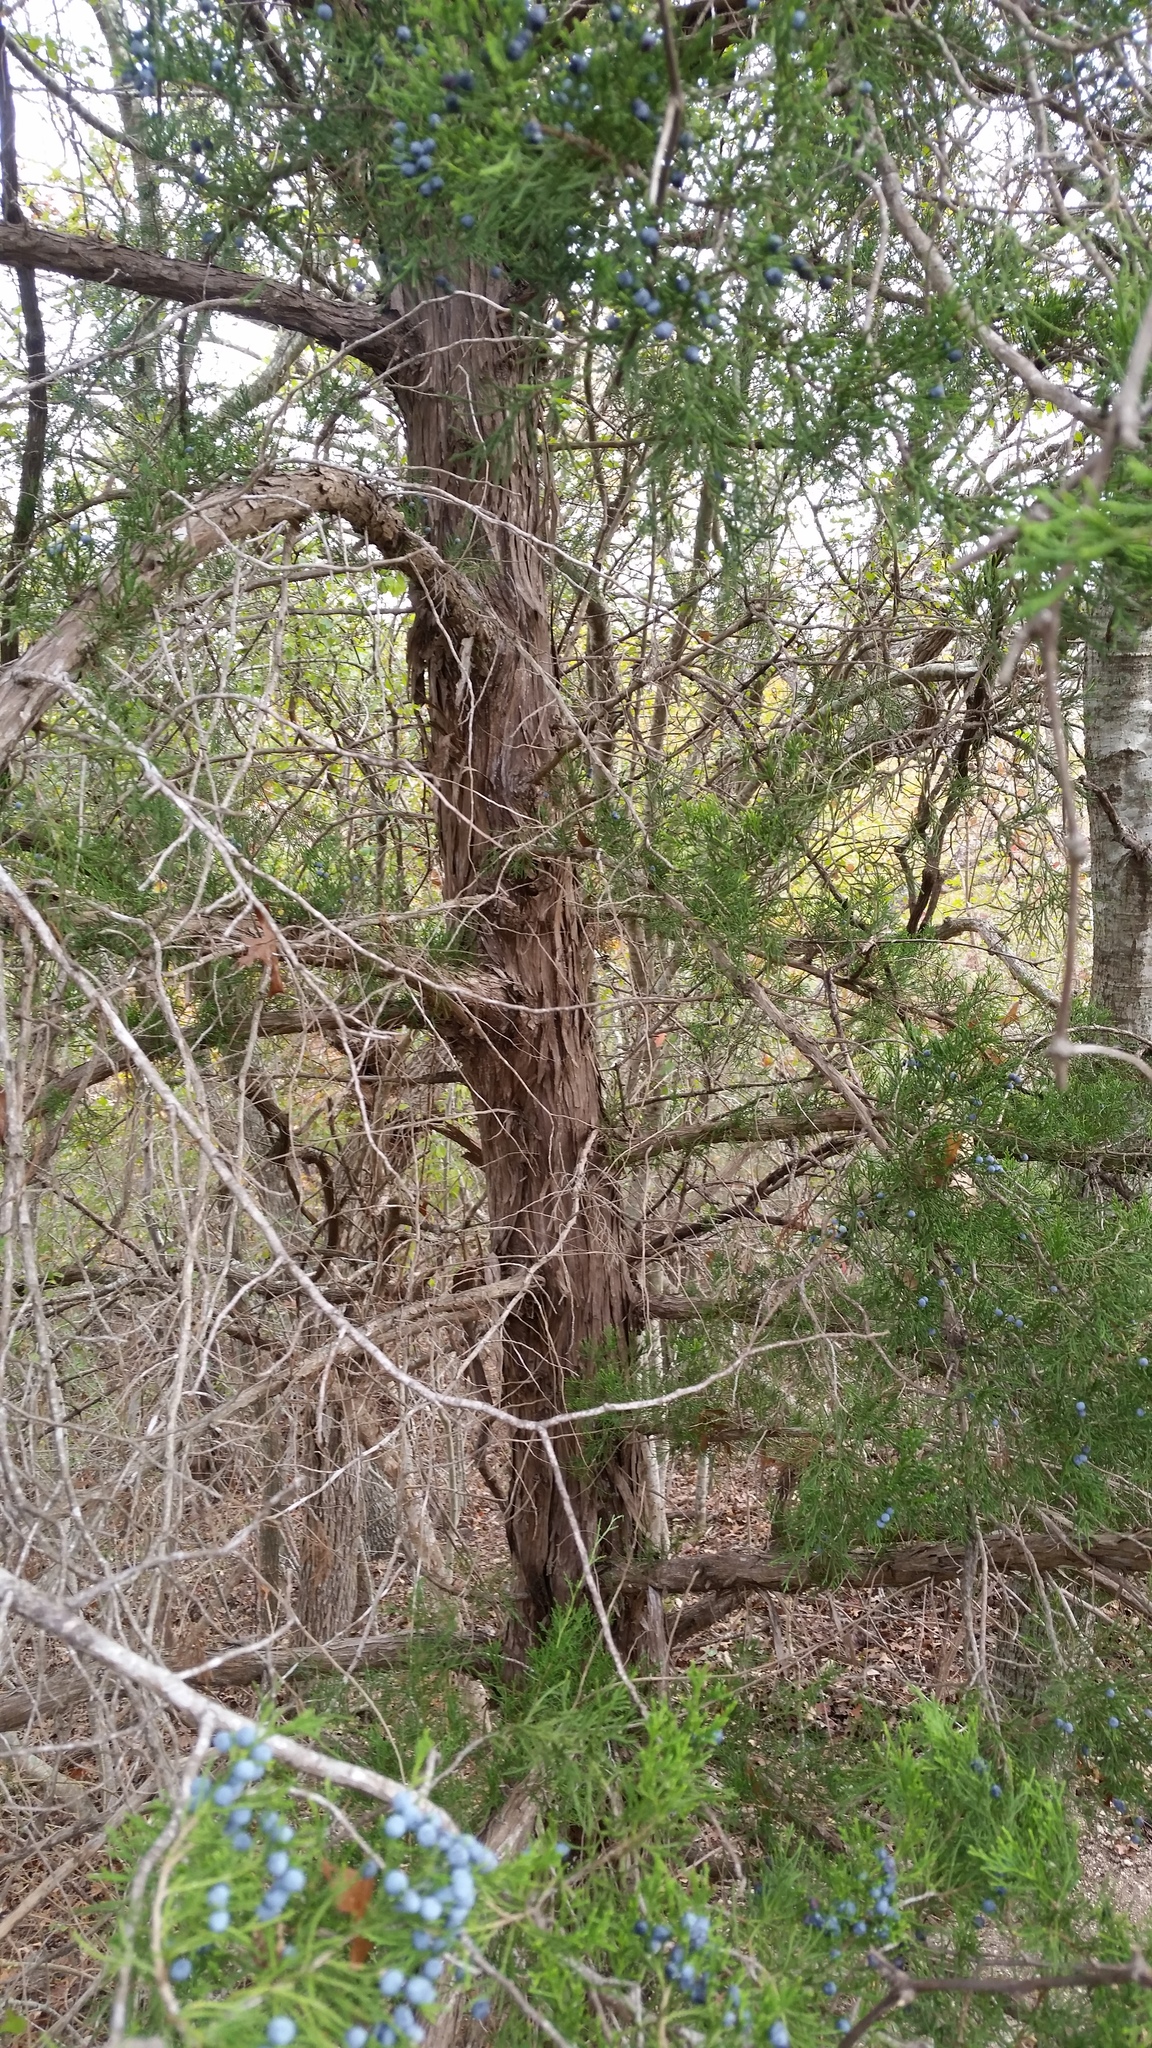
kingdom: Plantae
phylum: Tracheophyta
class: Pinopsida
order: Pinales
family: Cupressaceae
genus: Juniperus
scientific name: Juniperus virginiana
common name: Red juniper
